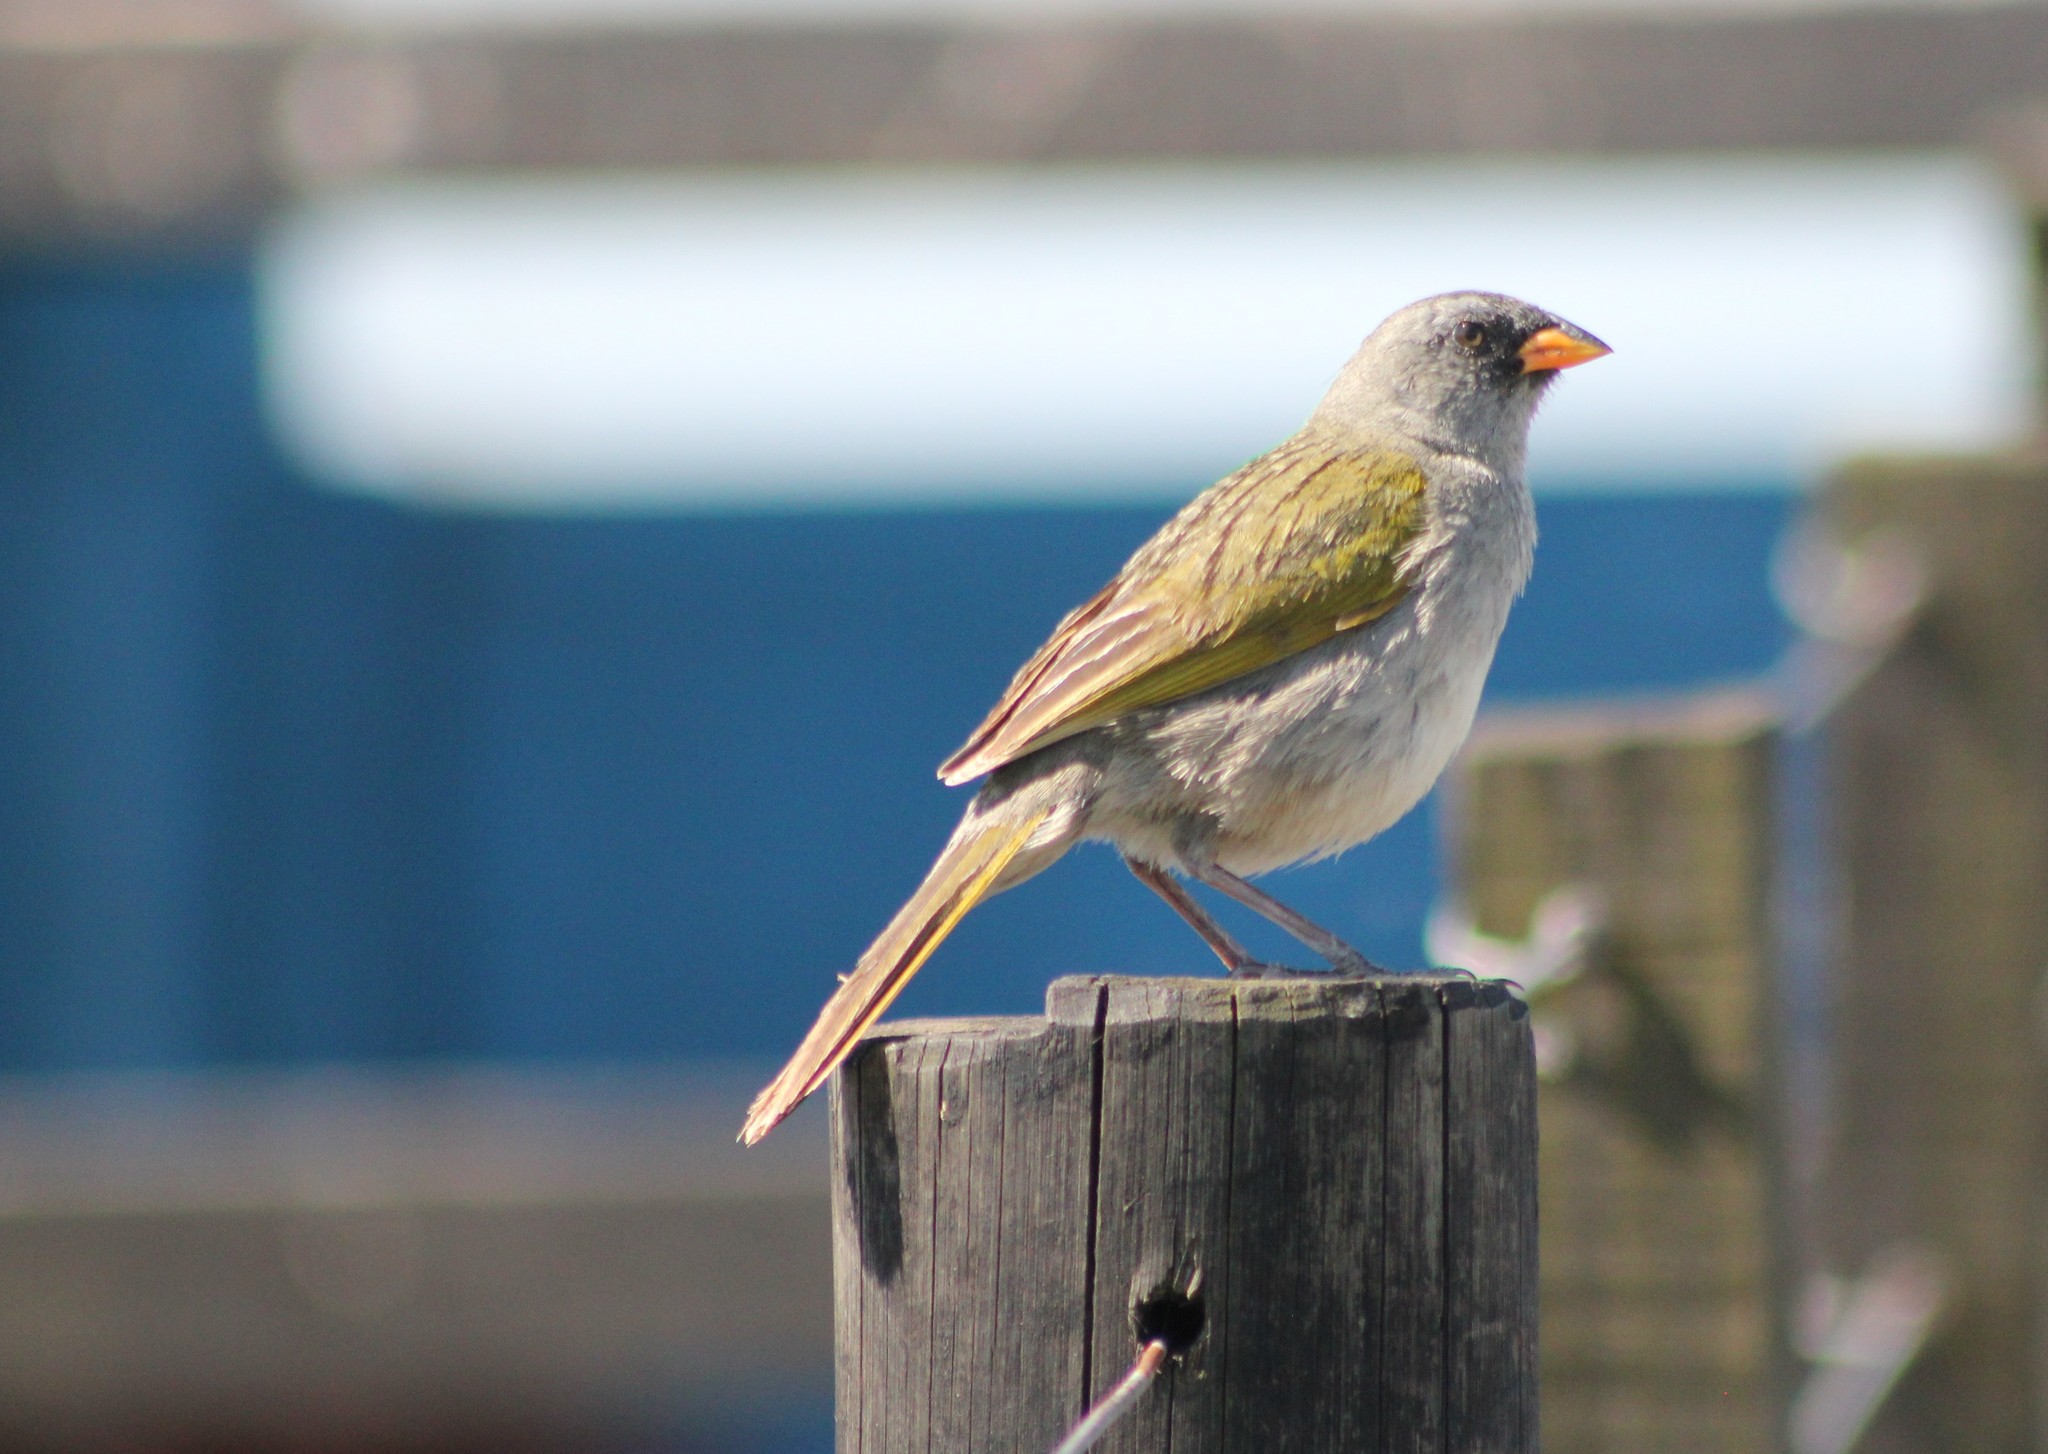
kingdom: Animalia
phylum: Chordata
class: Aves
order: Passeriformes
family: Thraupidae
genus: Embernagra
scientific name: Embernagra platensis
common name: Pampa finch
